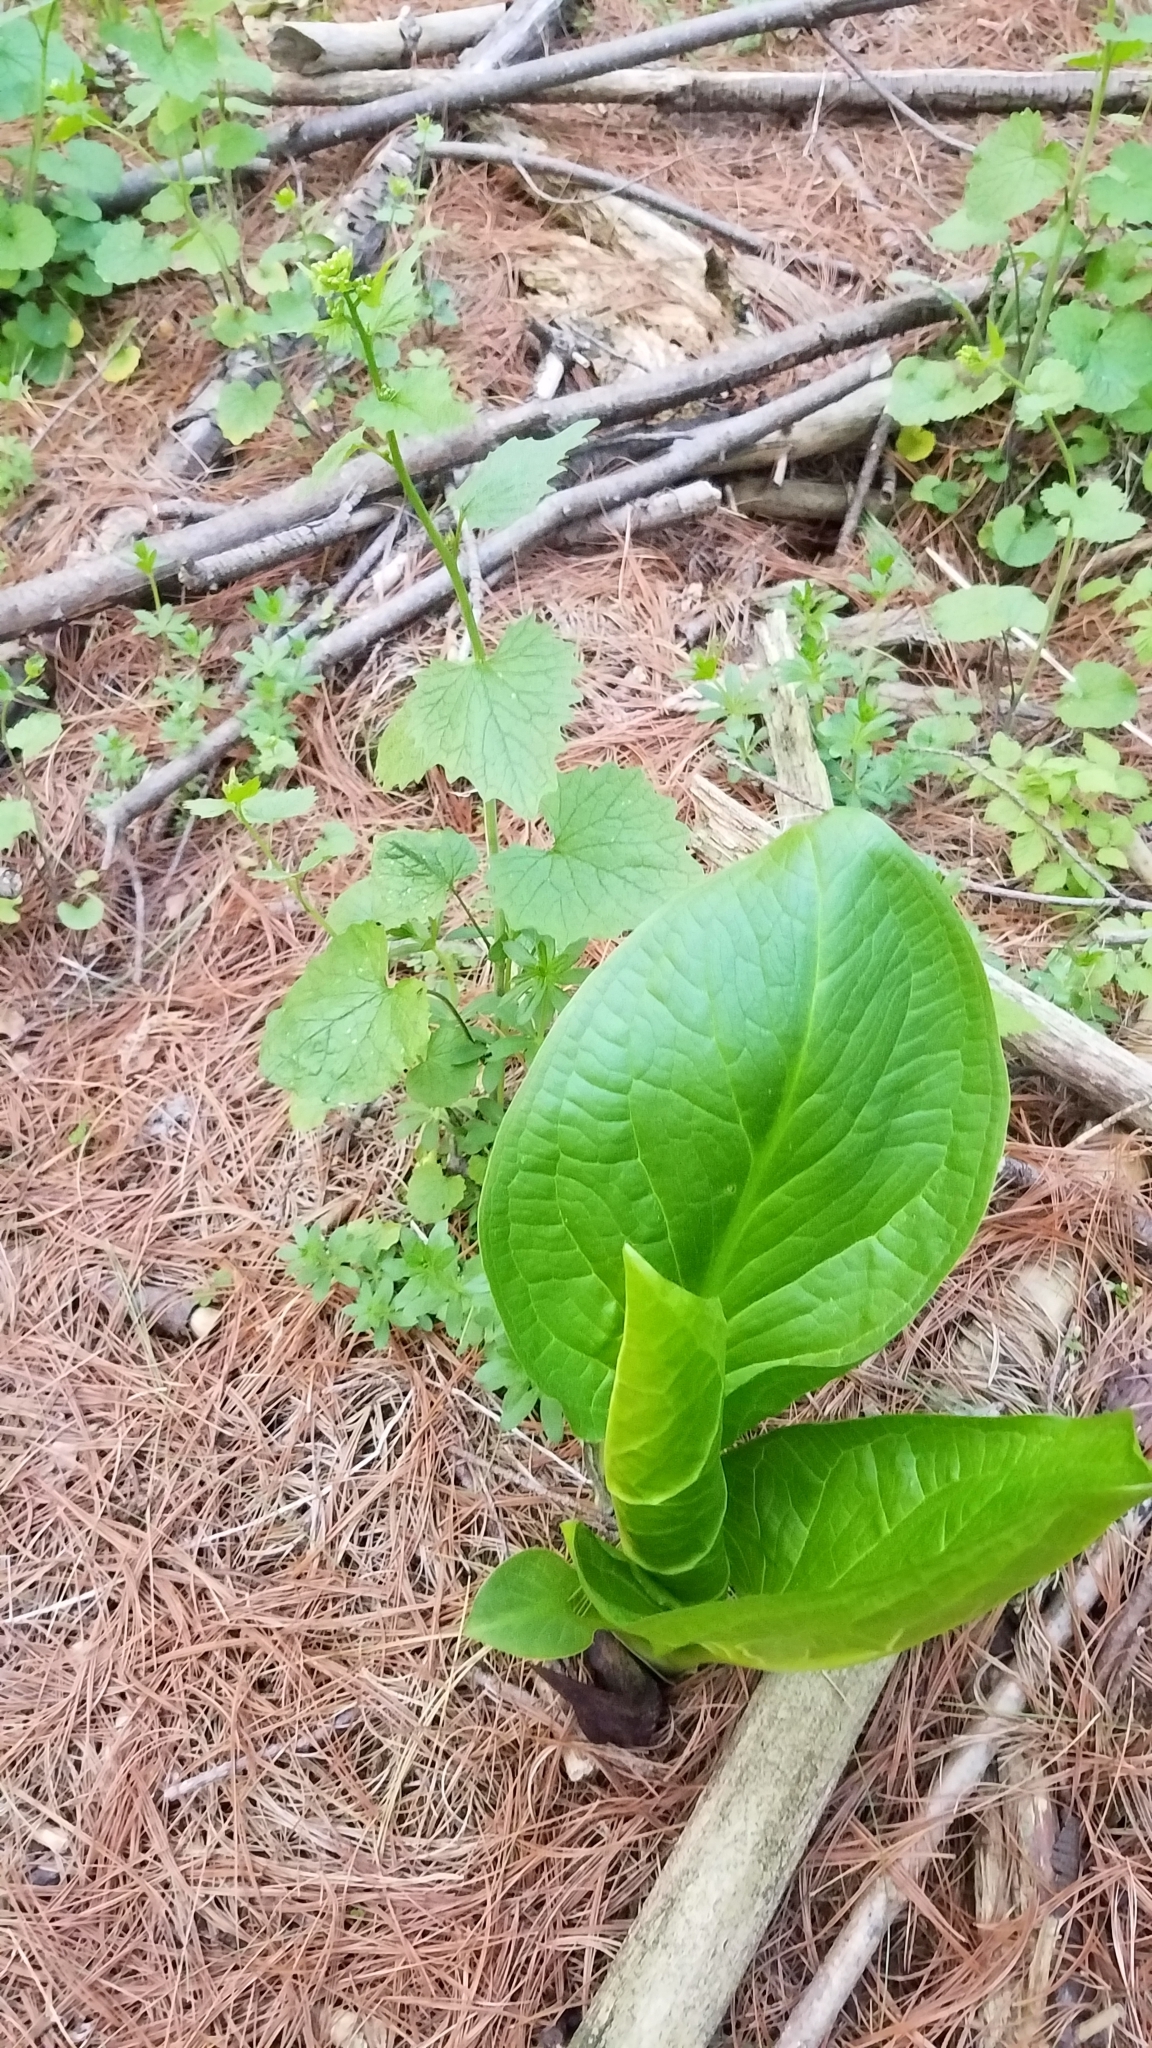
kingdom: Plantae
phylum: Tracheophyta
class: Liliopsida
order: Alismatales
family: Araceae
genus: Symplocarpus
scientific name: Symplocarpus foetidus
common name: Eastern skunk cabbage
